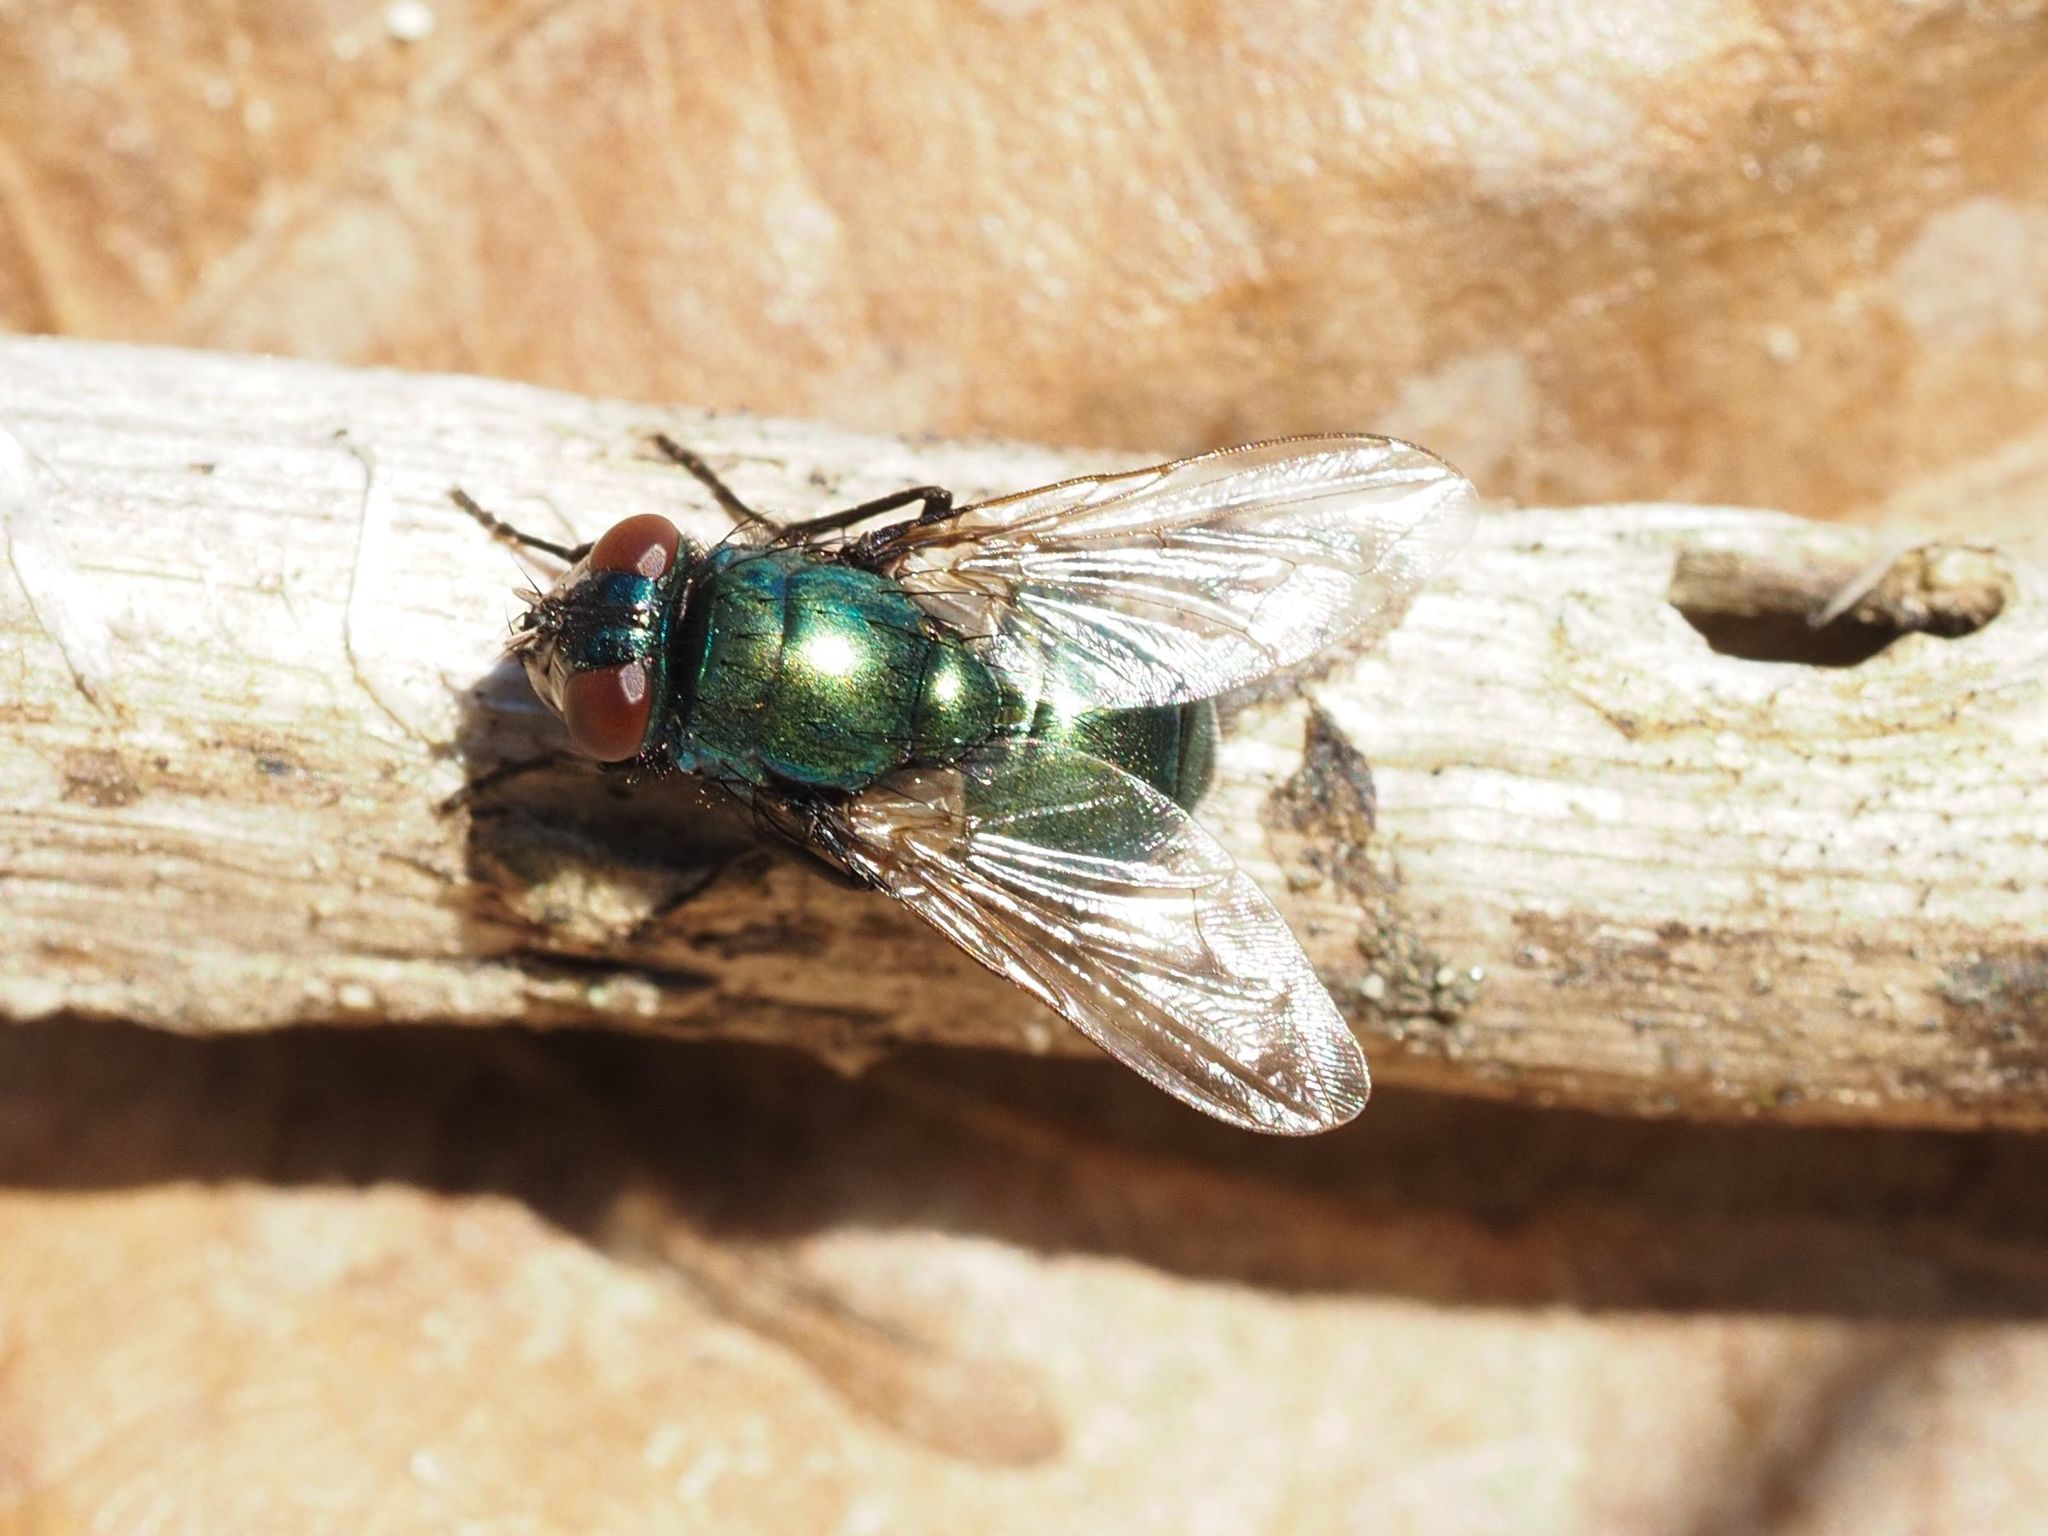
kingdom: Animalia
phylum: Arthropoda
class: Insecta
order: Diptera
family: Muscidae
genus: Neomyia
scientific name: Neomyia cornicina
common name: House fly
